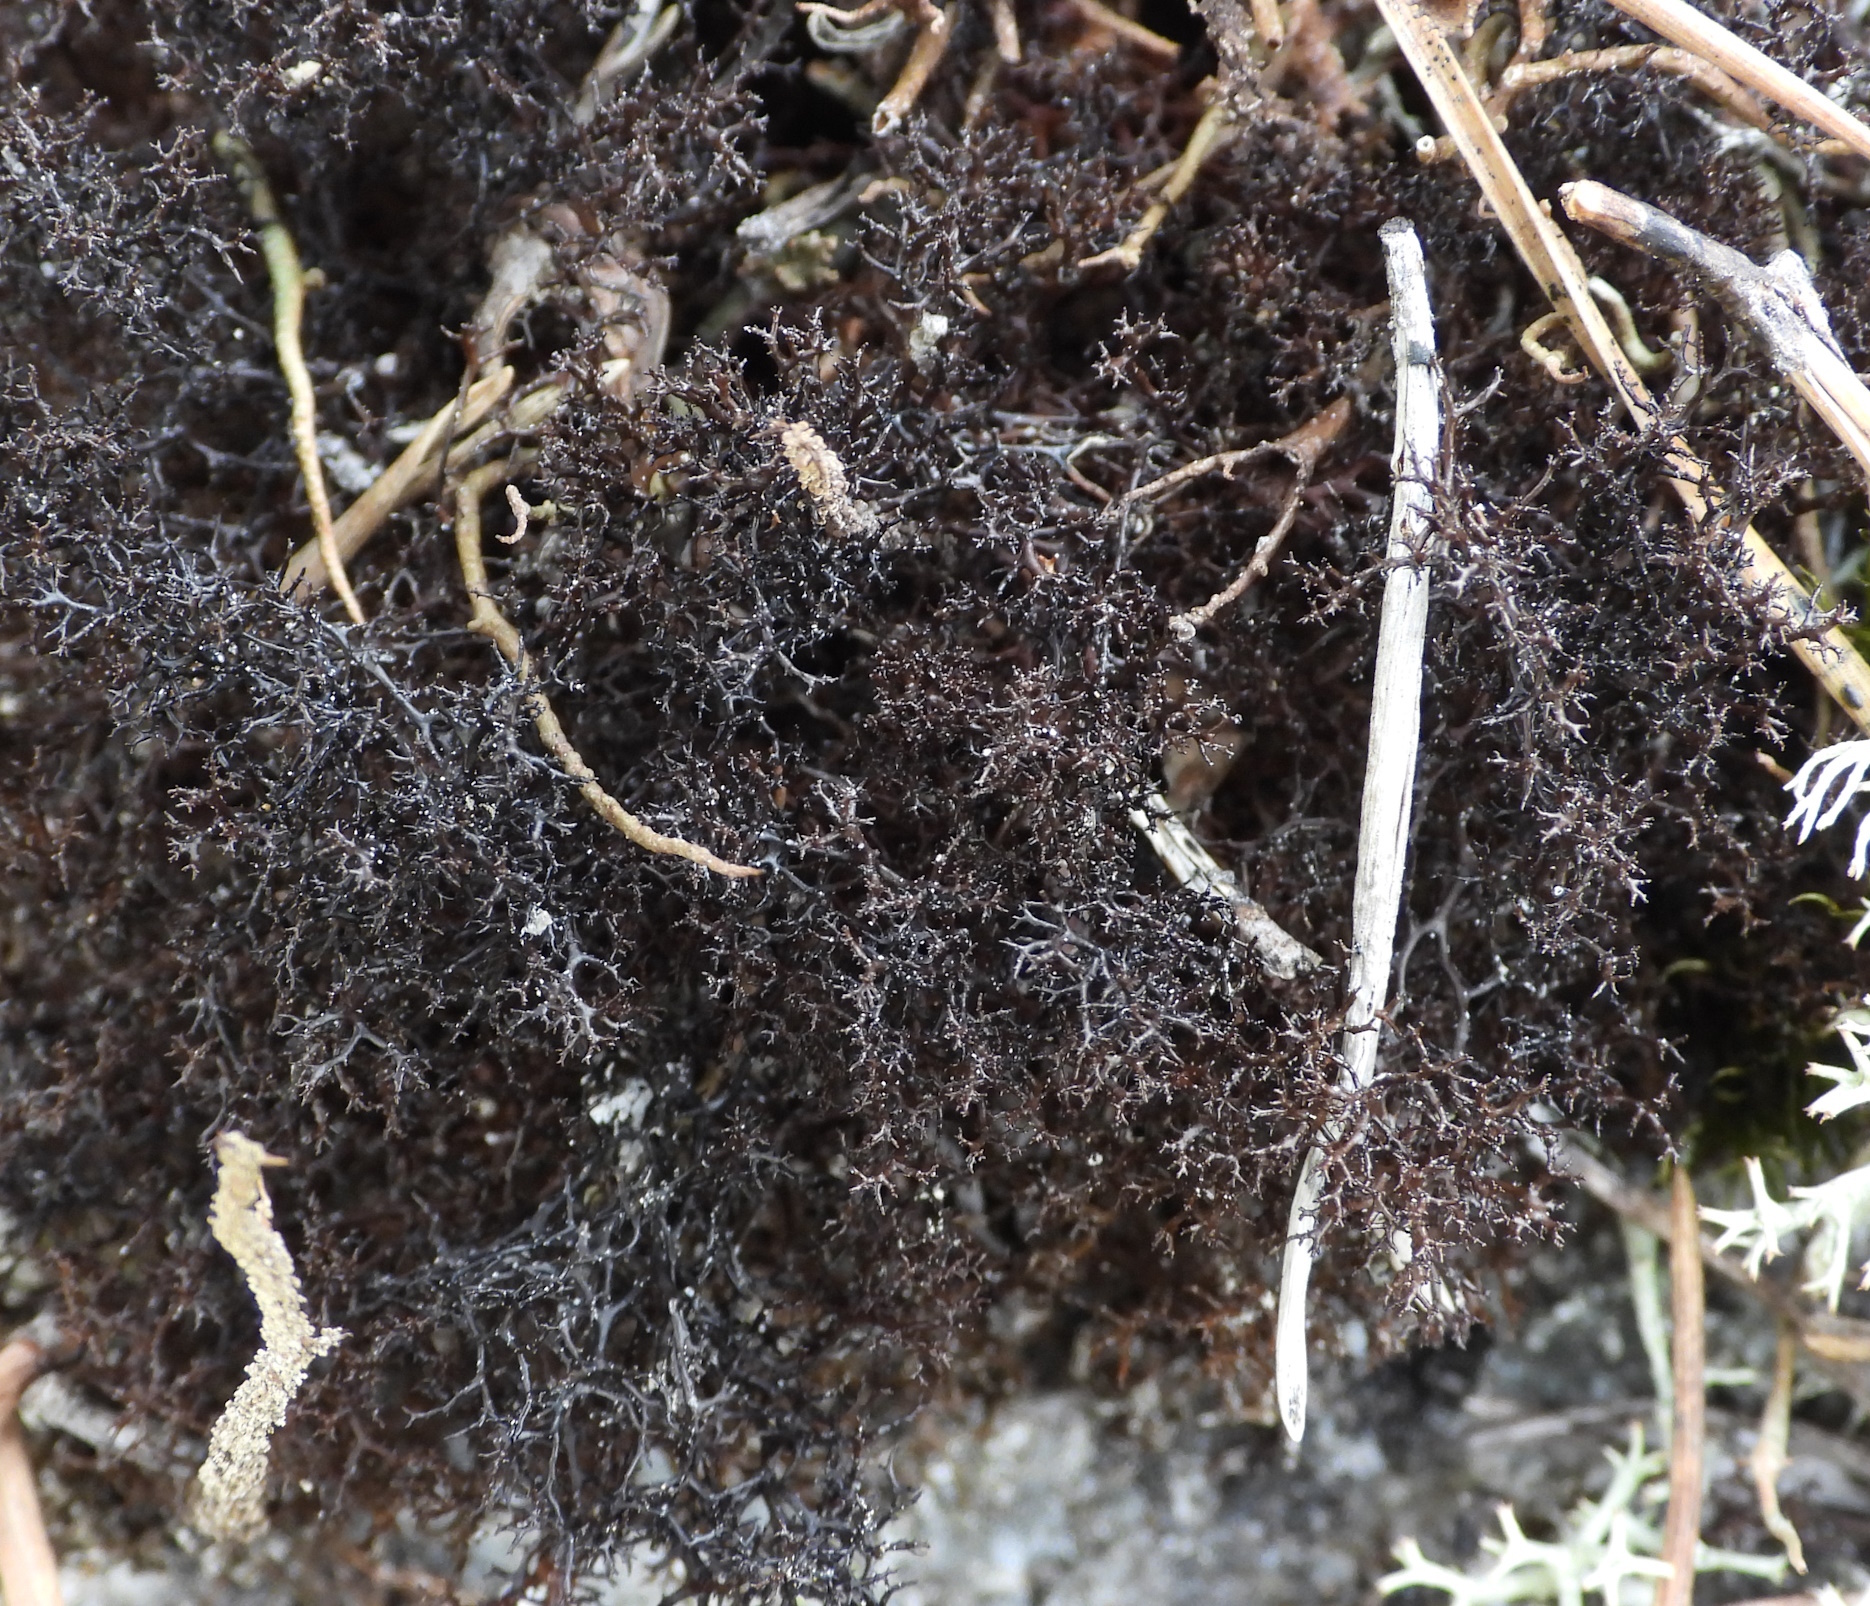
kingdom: Fungi
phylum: Ascomycota
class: Lecanoromycetes
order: Lecanorales
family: Parmeliaceae
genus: Cetraria
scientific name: Cetraria muricata
